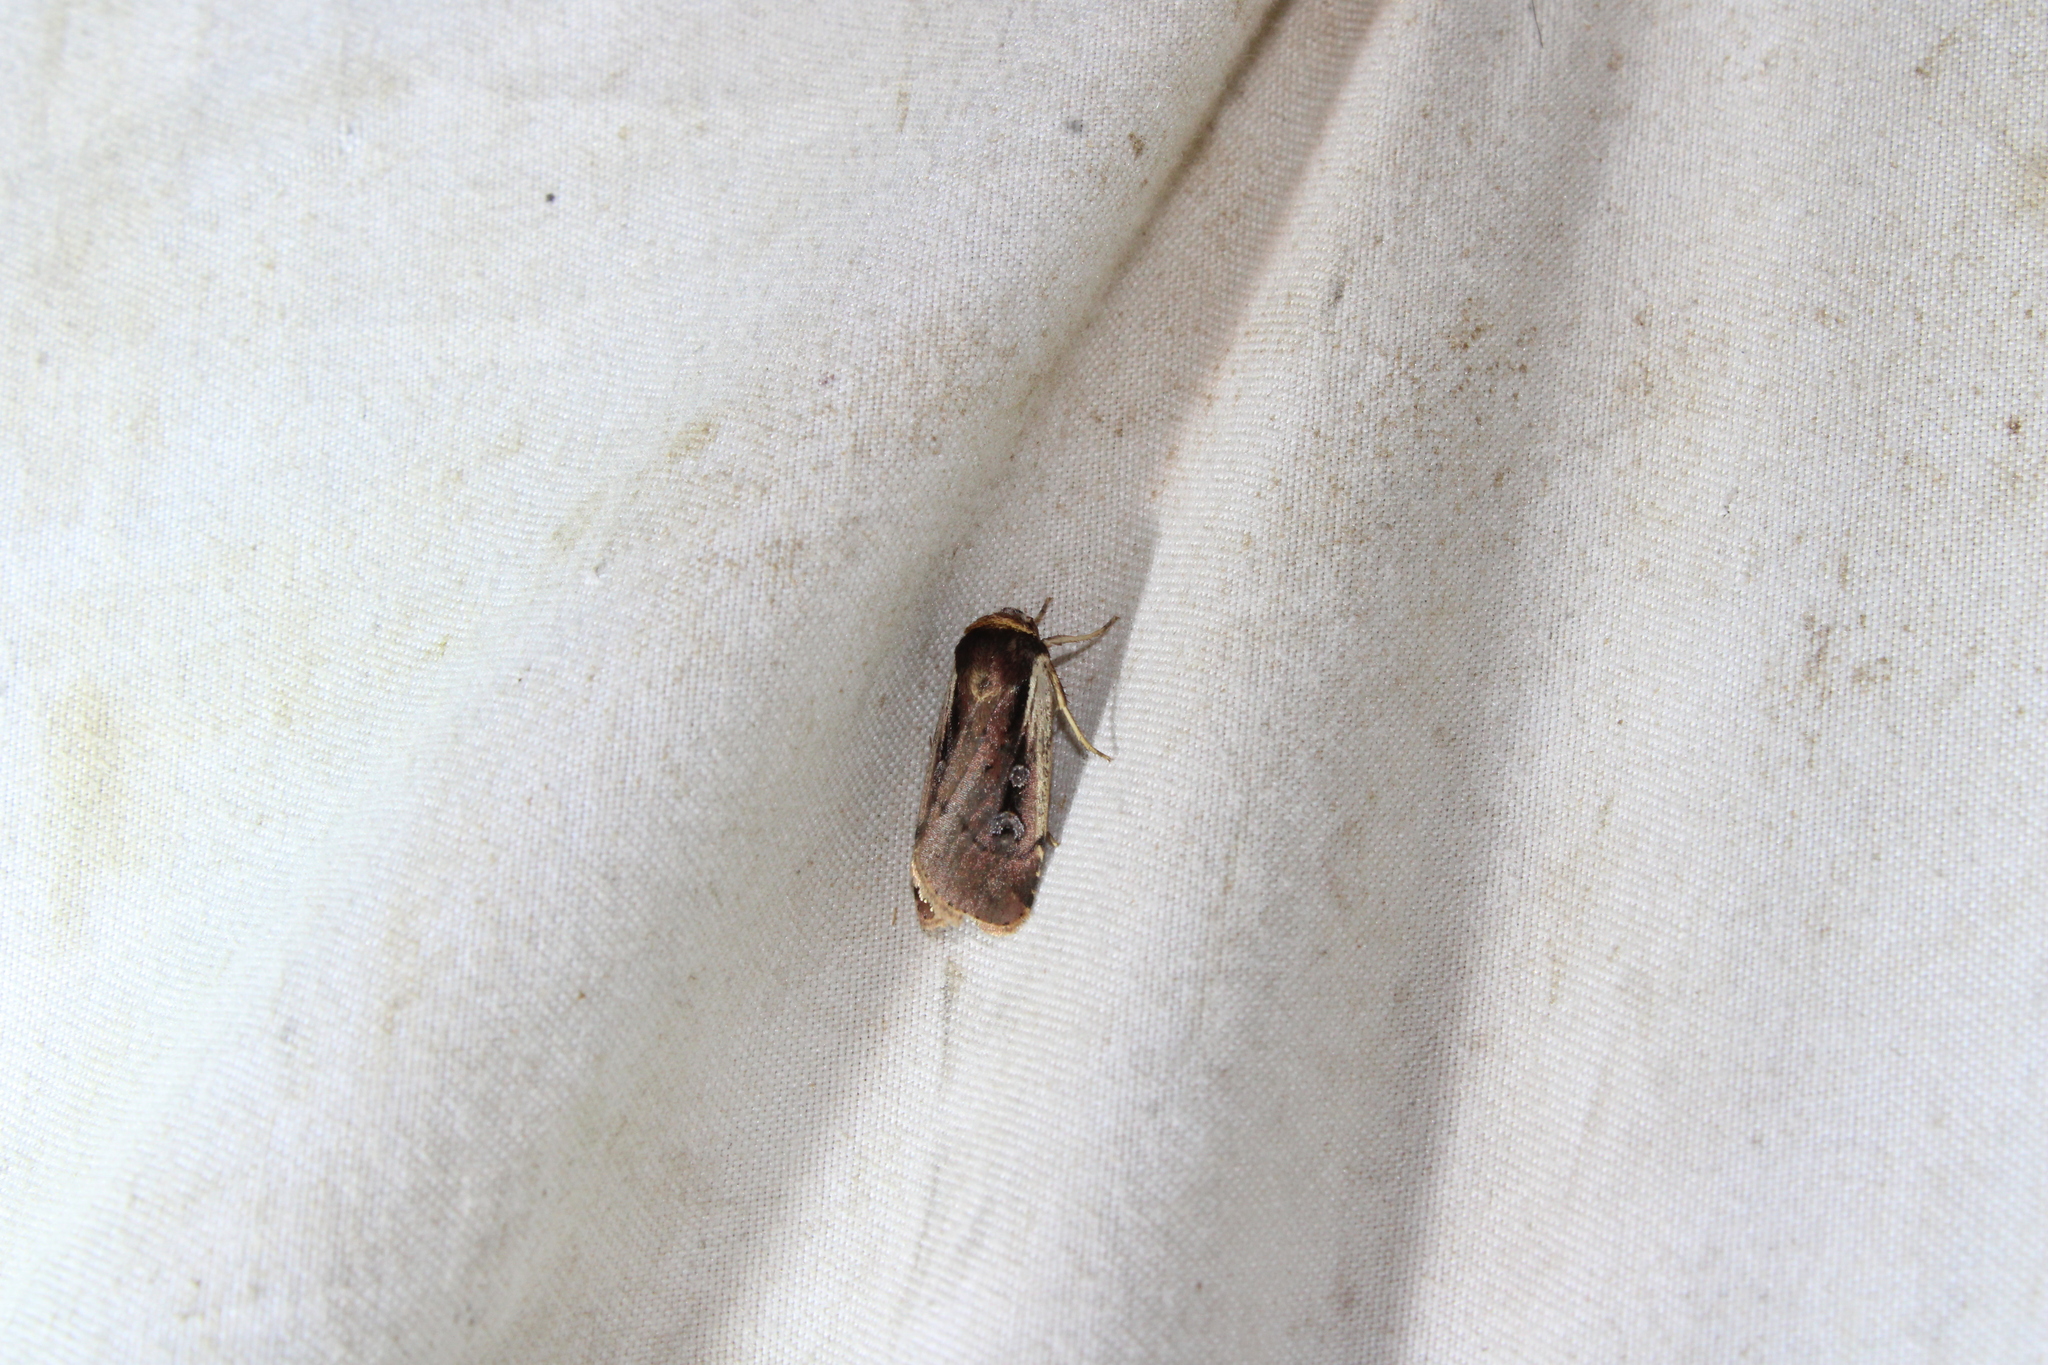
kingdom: Animalia
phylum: Arthropoda
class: Insecta
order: Lepidoptera
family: Noctuidae
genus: Ochropleura
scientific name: Ochropleura implecta
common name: Flame-shouldered dart
